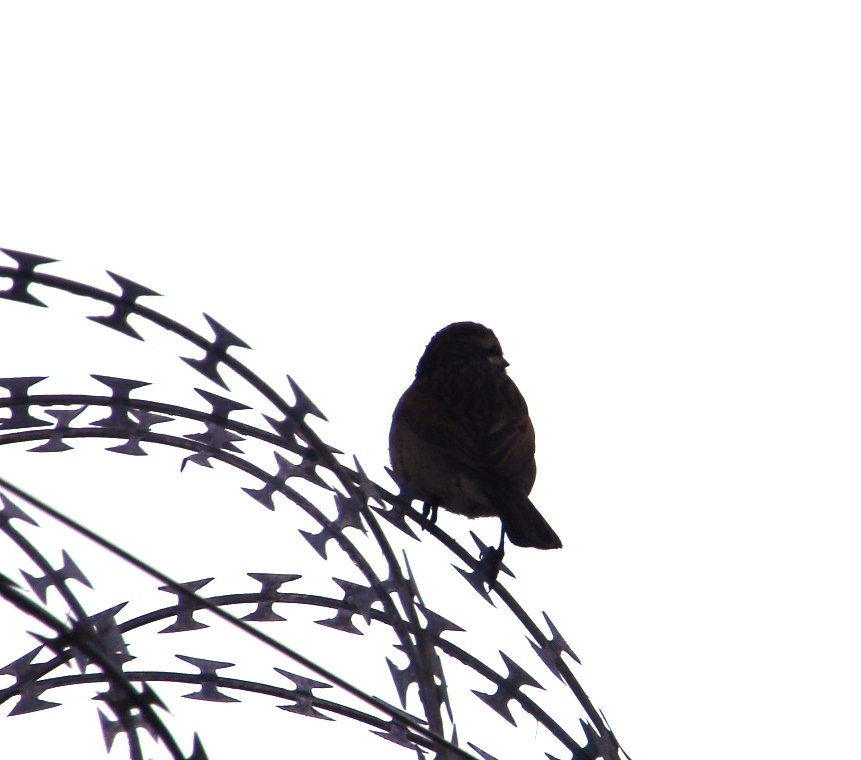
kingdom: Animalia
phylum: Chordata
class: Aves
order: Passeriformes
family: Emberizidae
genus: Emberiza
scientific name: Emberiza capensis
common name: Cape bunting
